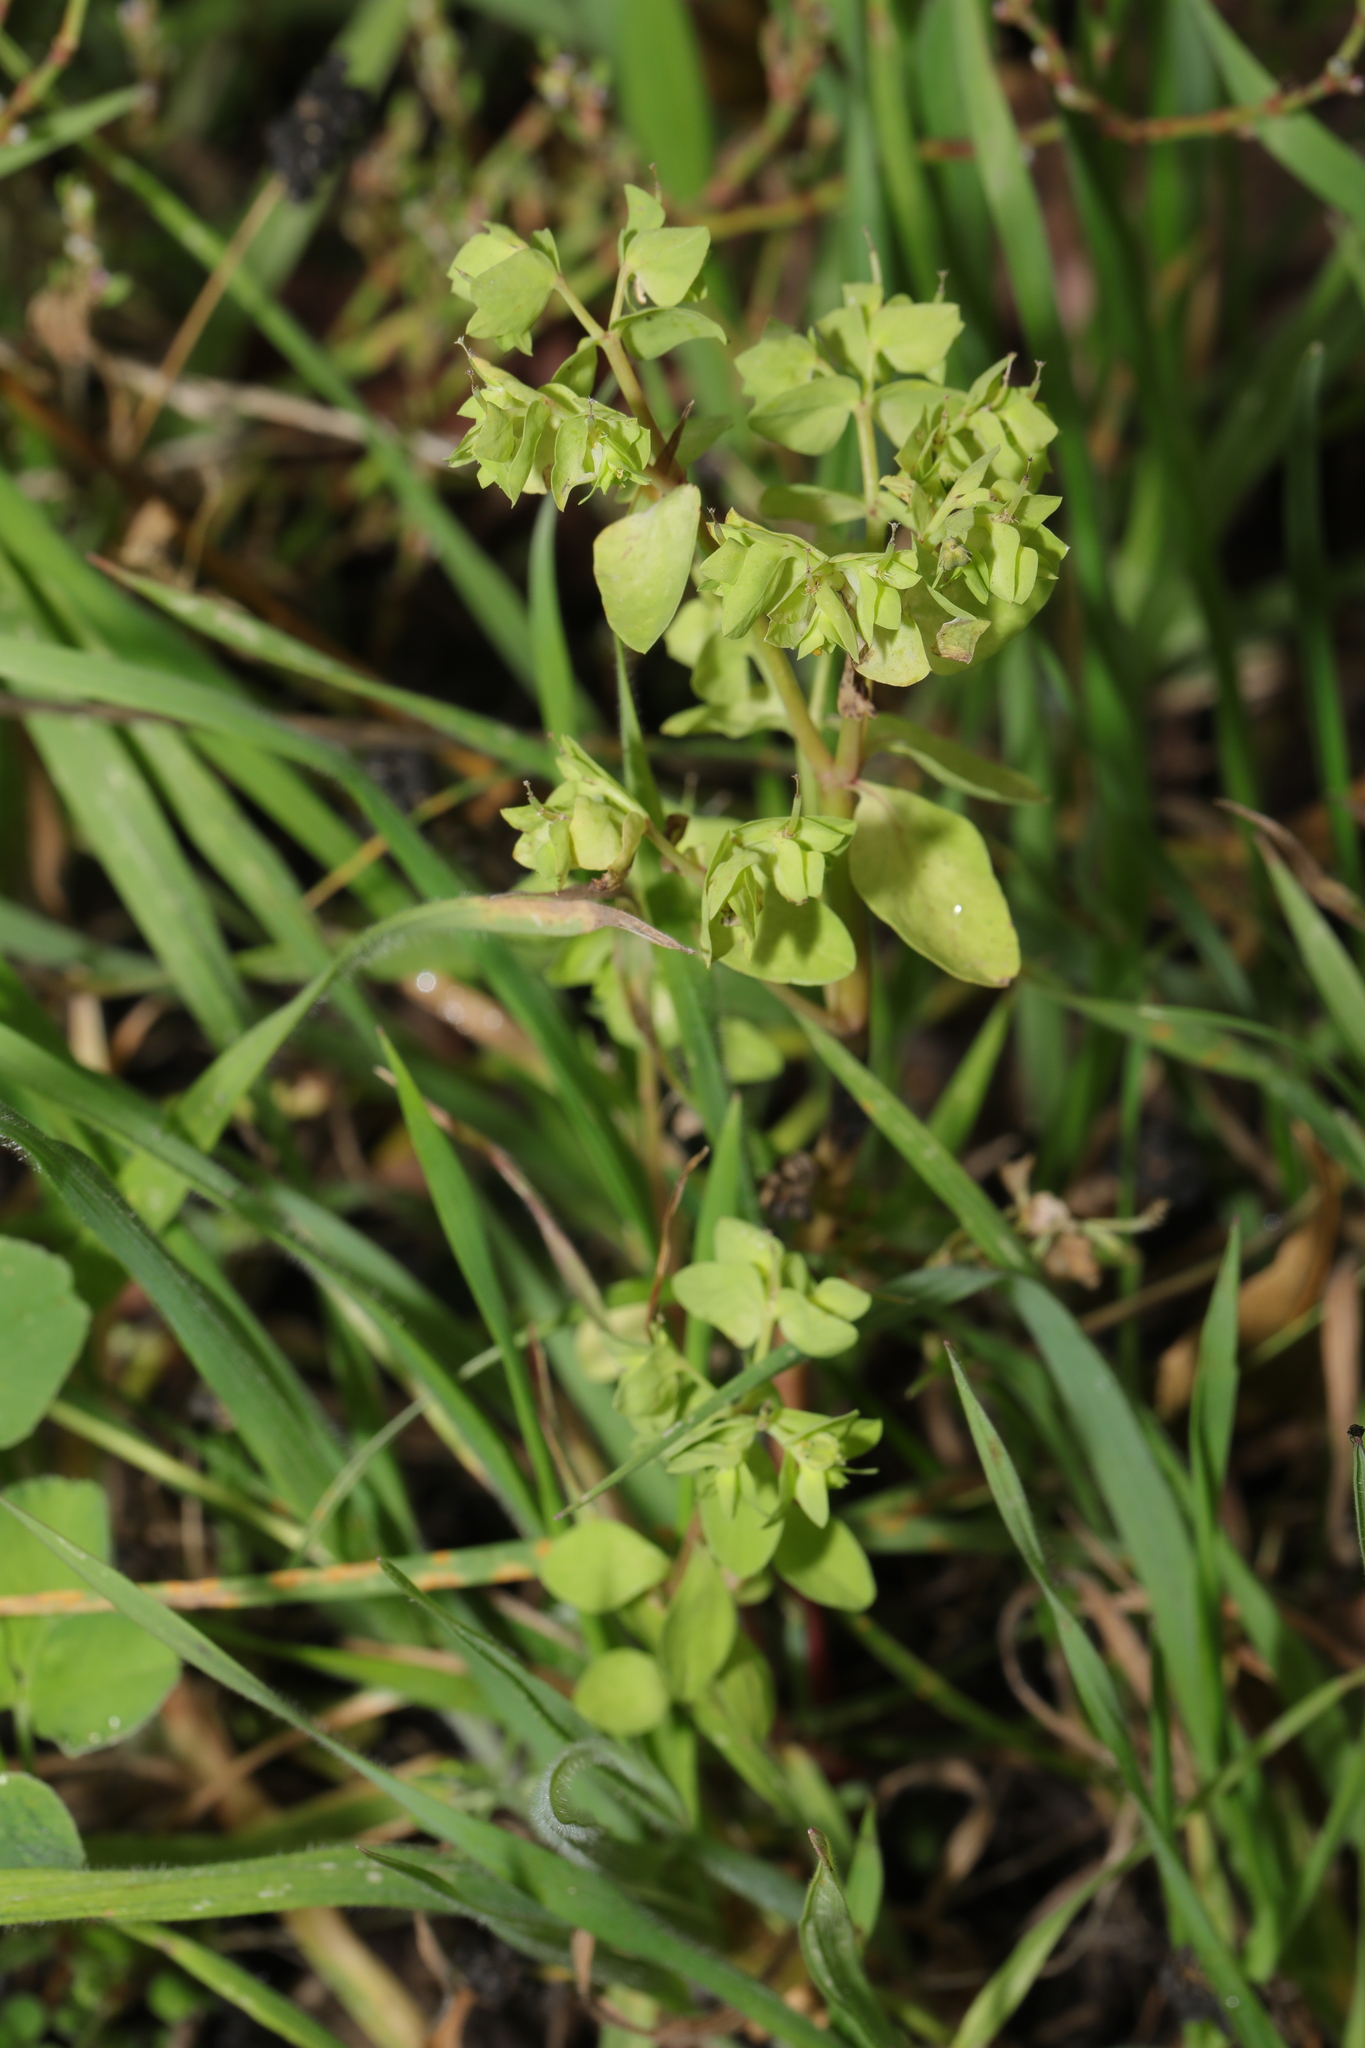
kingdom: Plantae
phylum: Tracheophyta
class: Magnoliopsida
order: Malpighiales
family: Euphorbiaceae
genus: Euphorbia
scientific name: Euphorbia peplus
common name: Petty spurge
